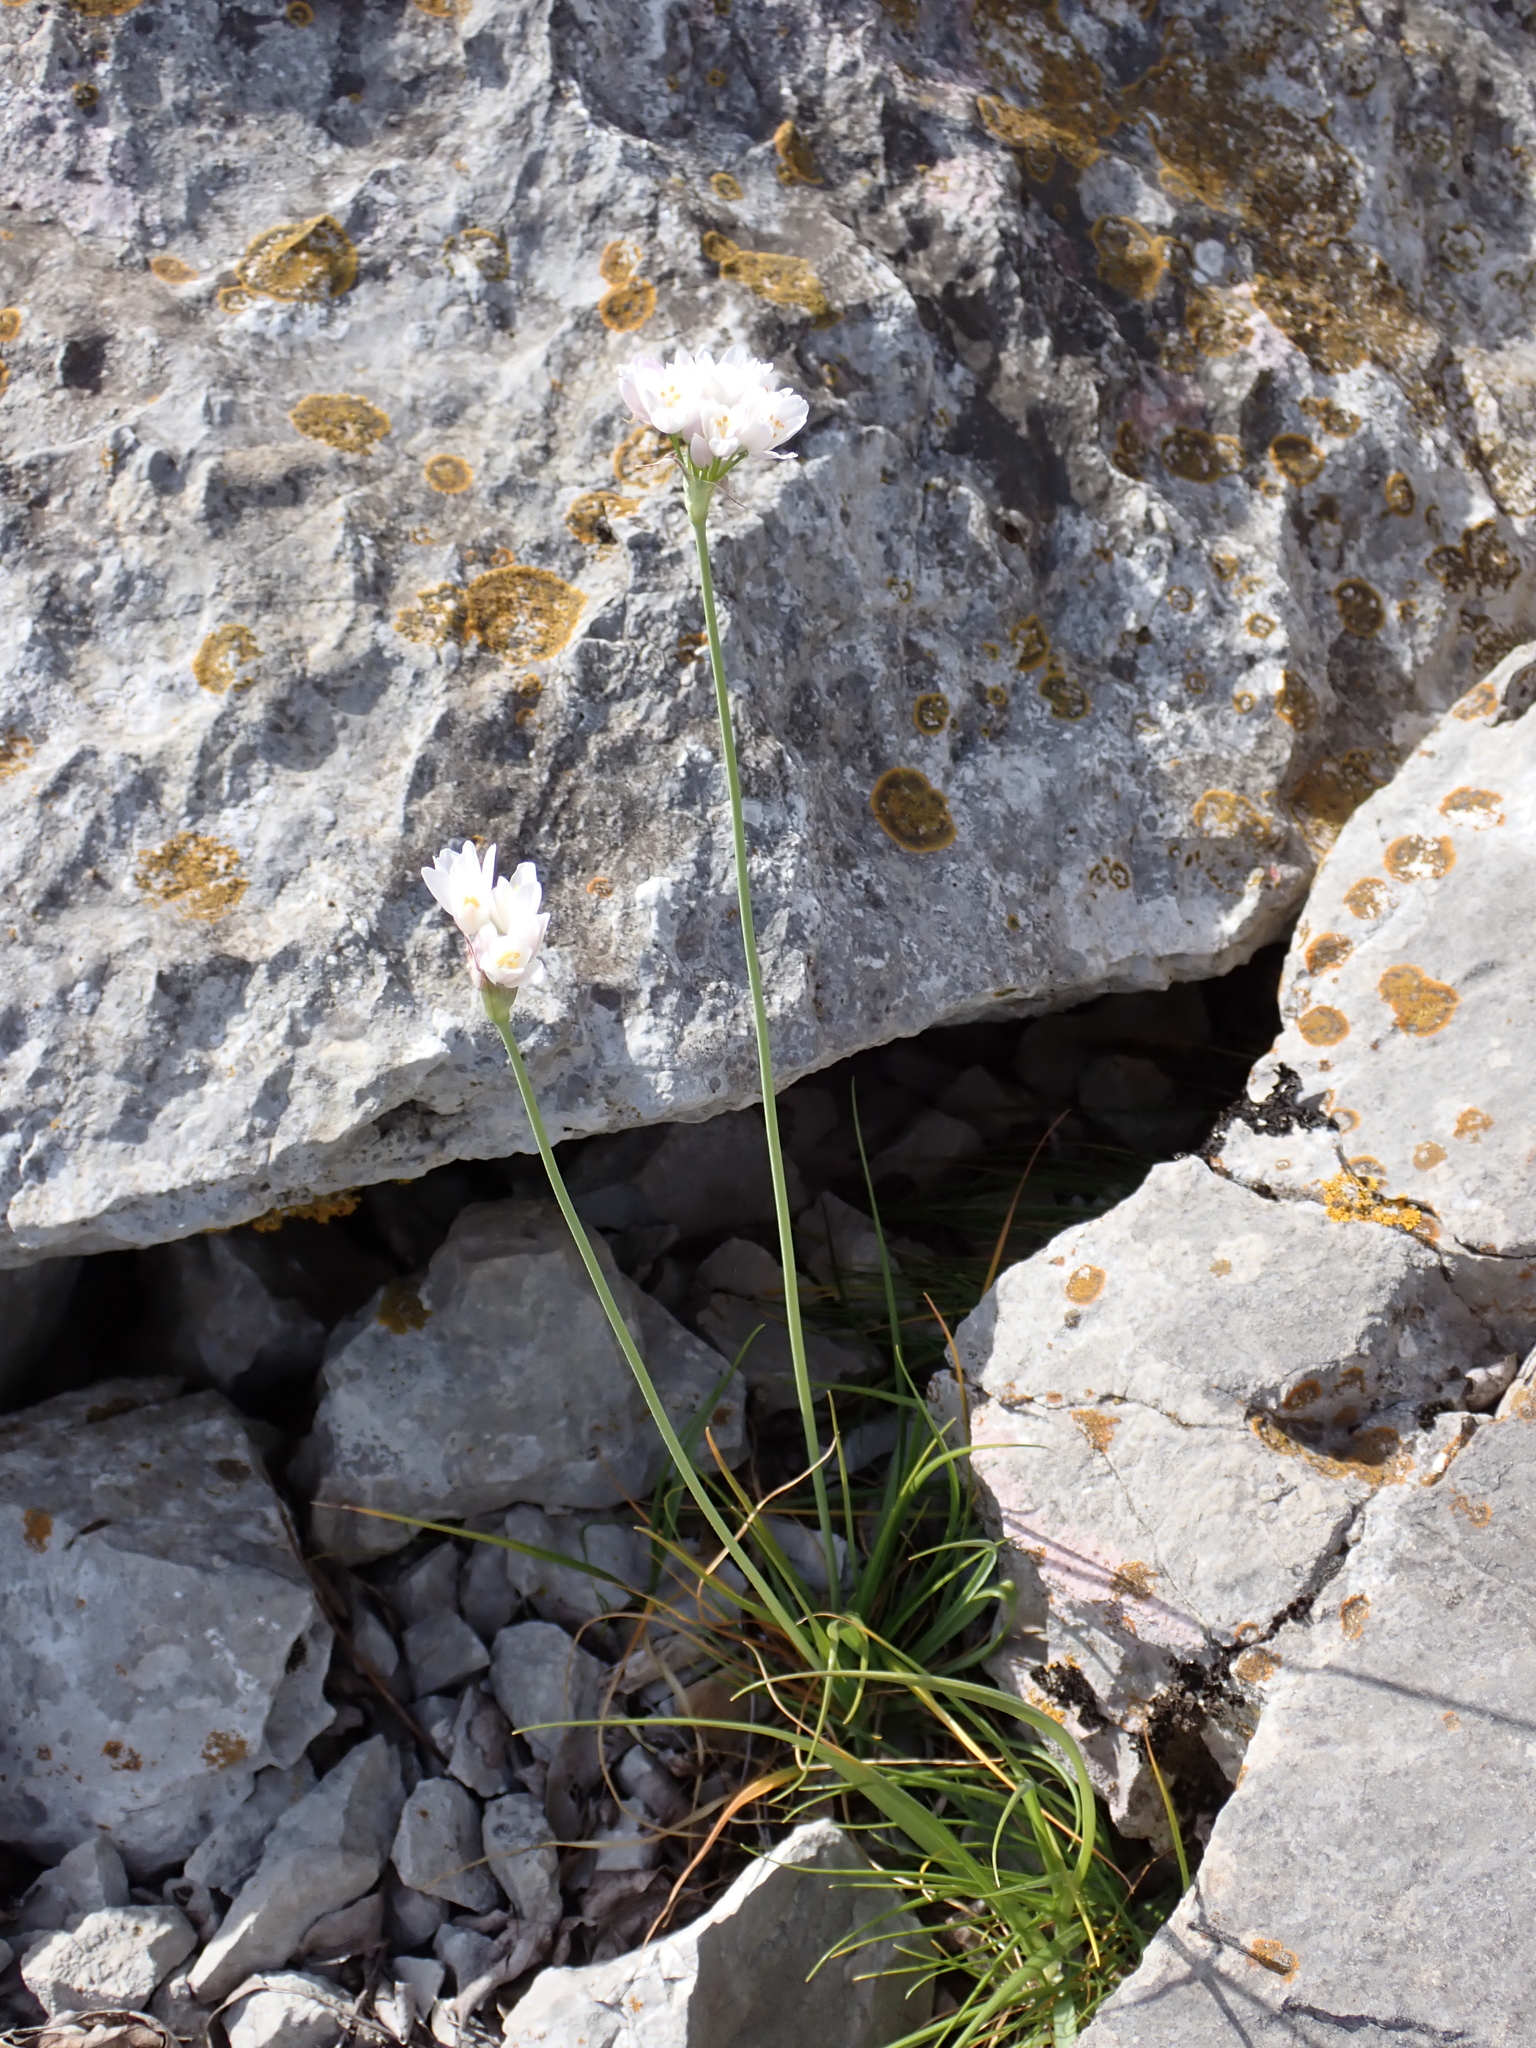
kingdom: Plantae
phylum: Tracheophyta
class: Liliopsida
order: Asparagales
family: Amaryllidaceae
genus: Allium
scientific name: Allium roseum
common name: Rosy garlic
